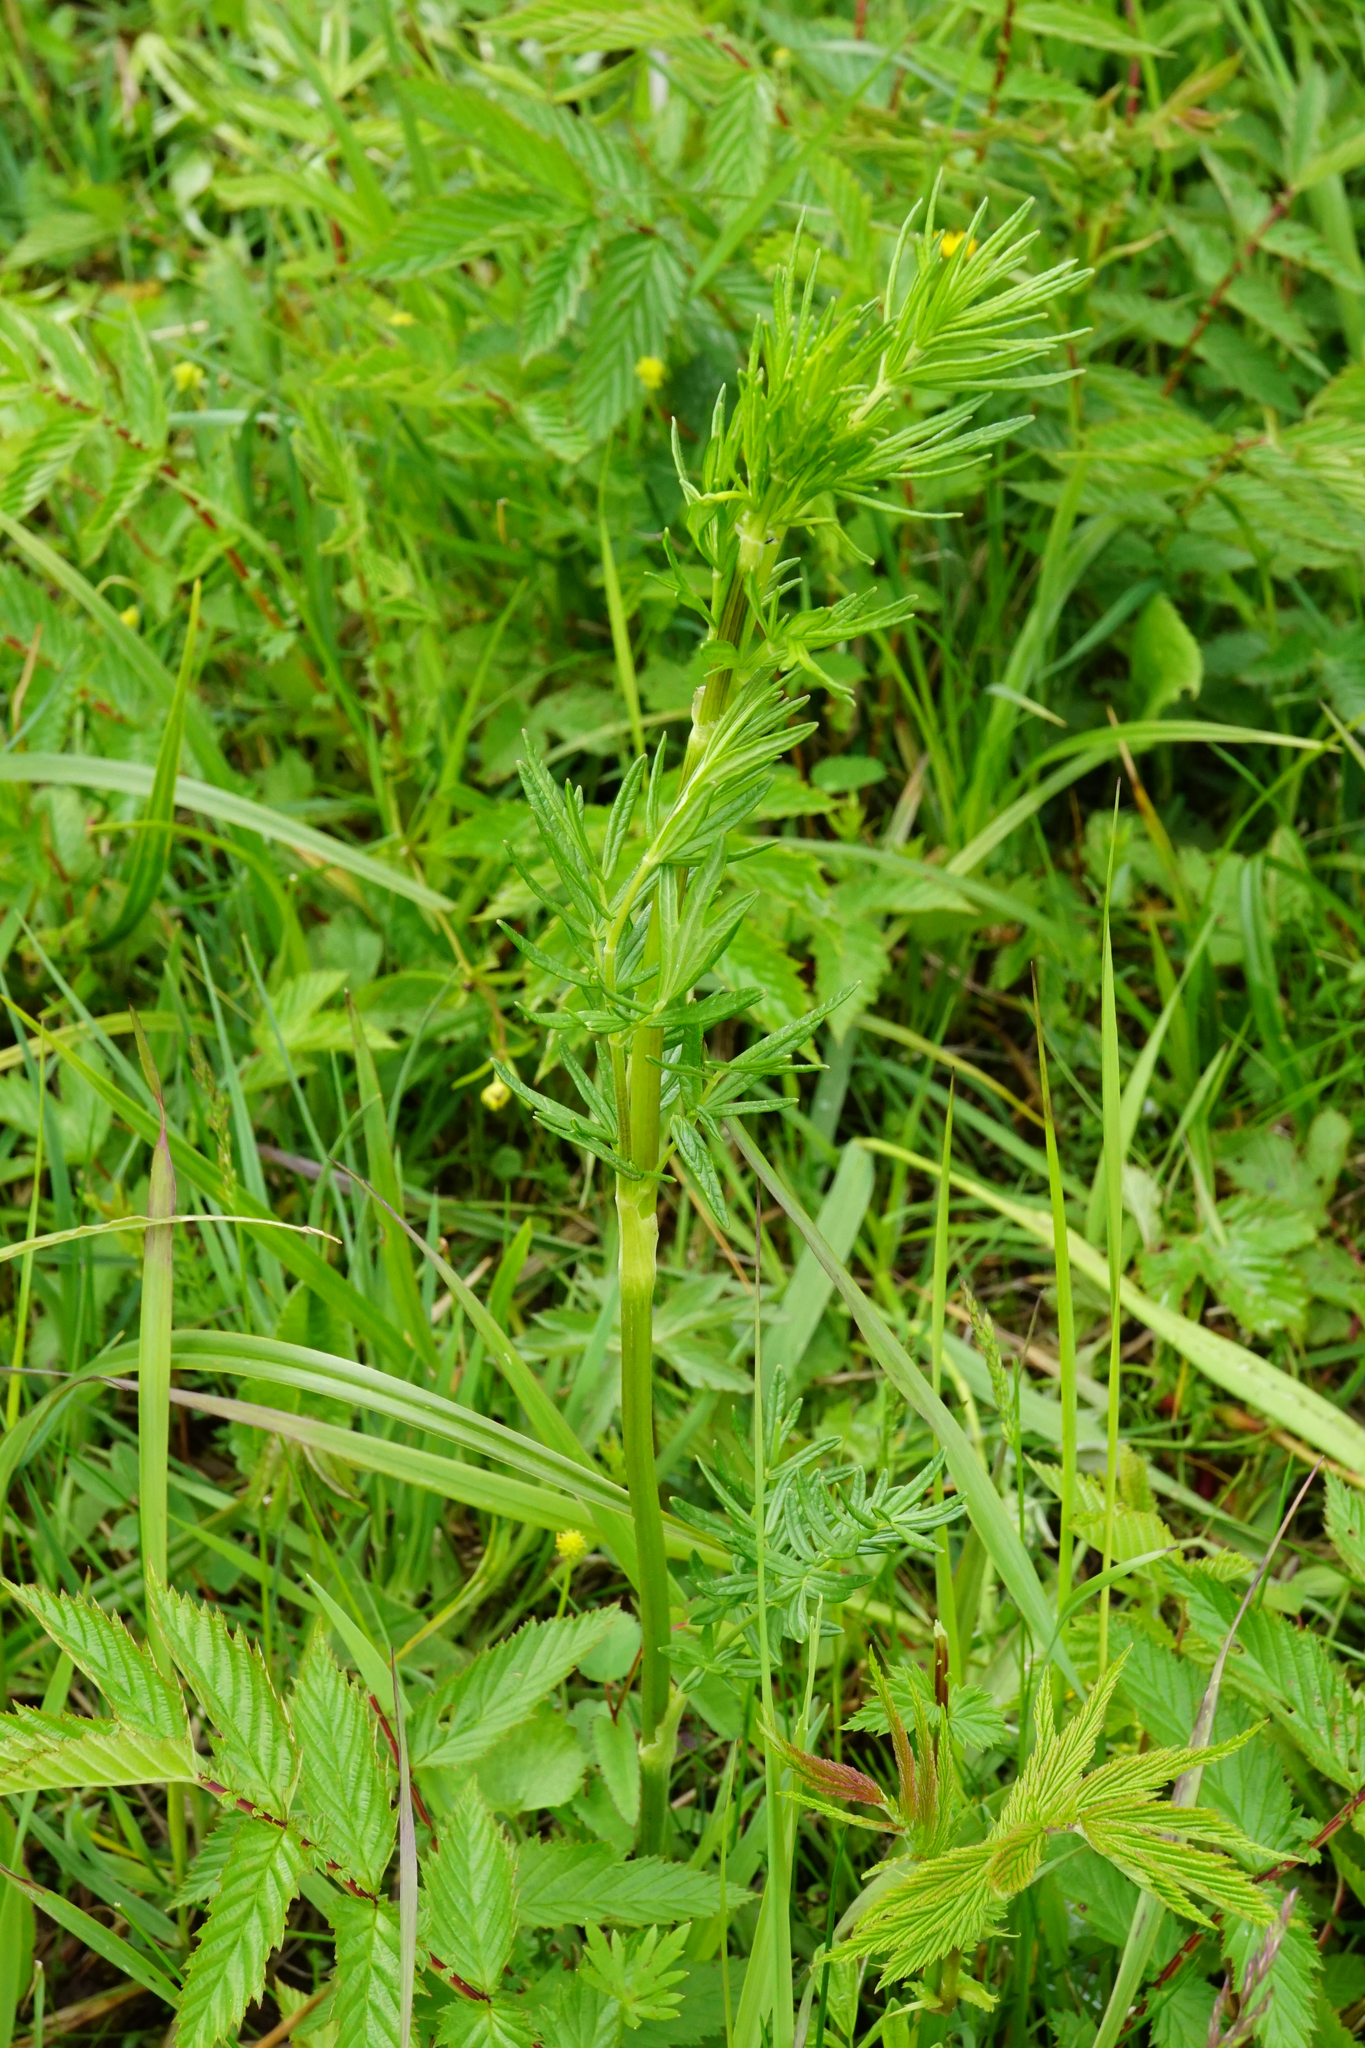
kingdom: Plantae
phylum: Tracheophyta
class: Magnoliopsida
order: Ranunculales
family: Ranunculaceae
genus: Thalictrum
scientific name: Thalictrum lucidum
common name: Shining meadow-rue
